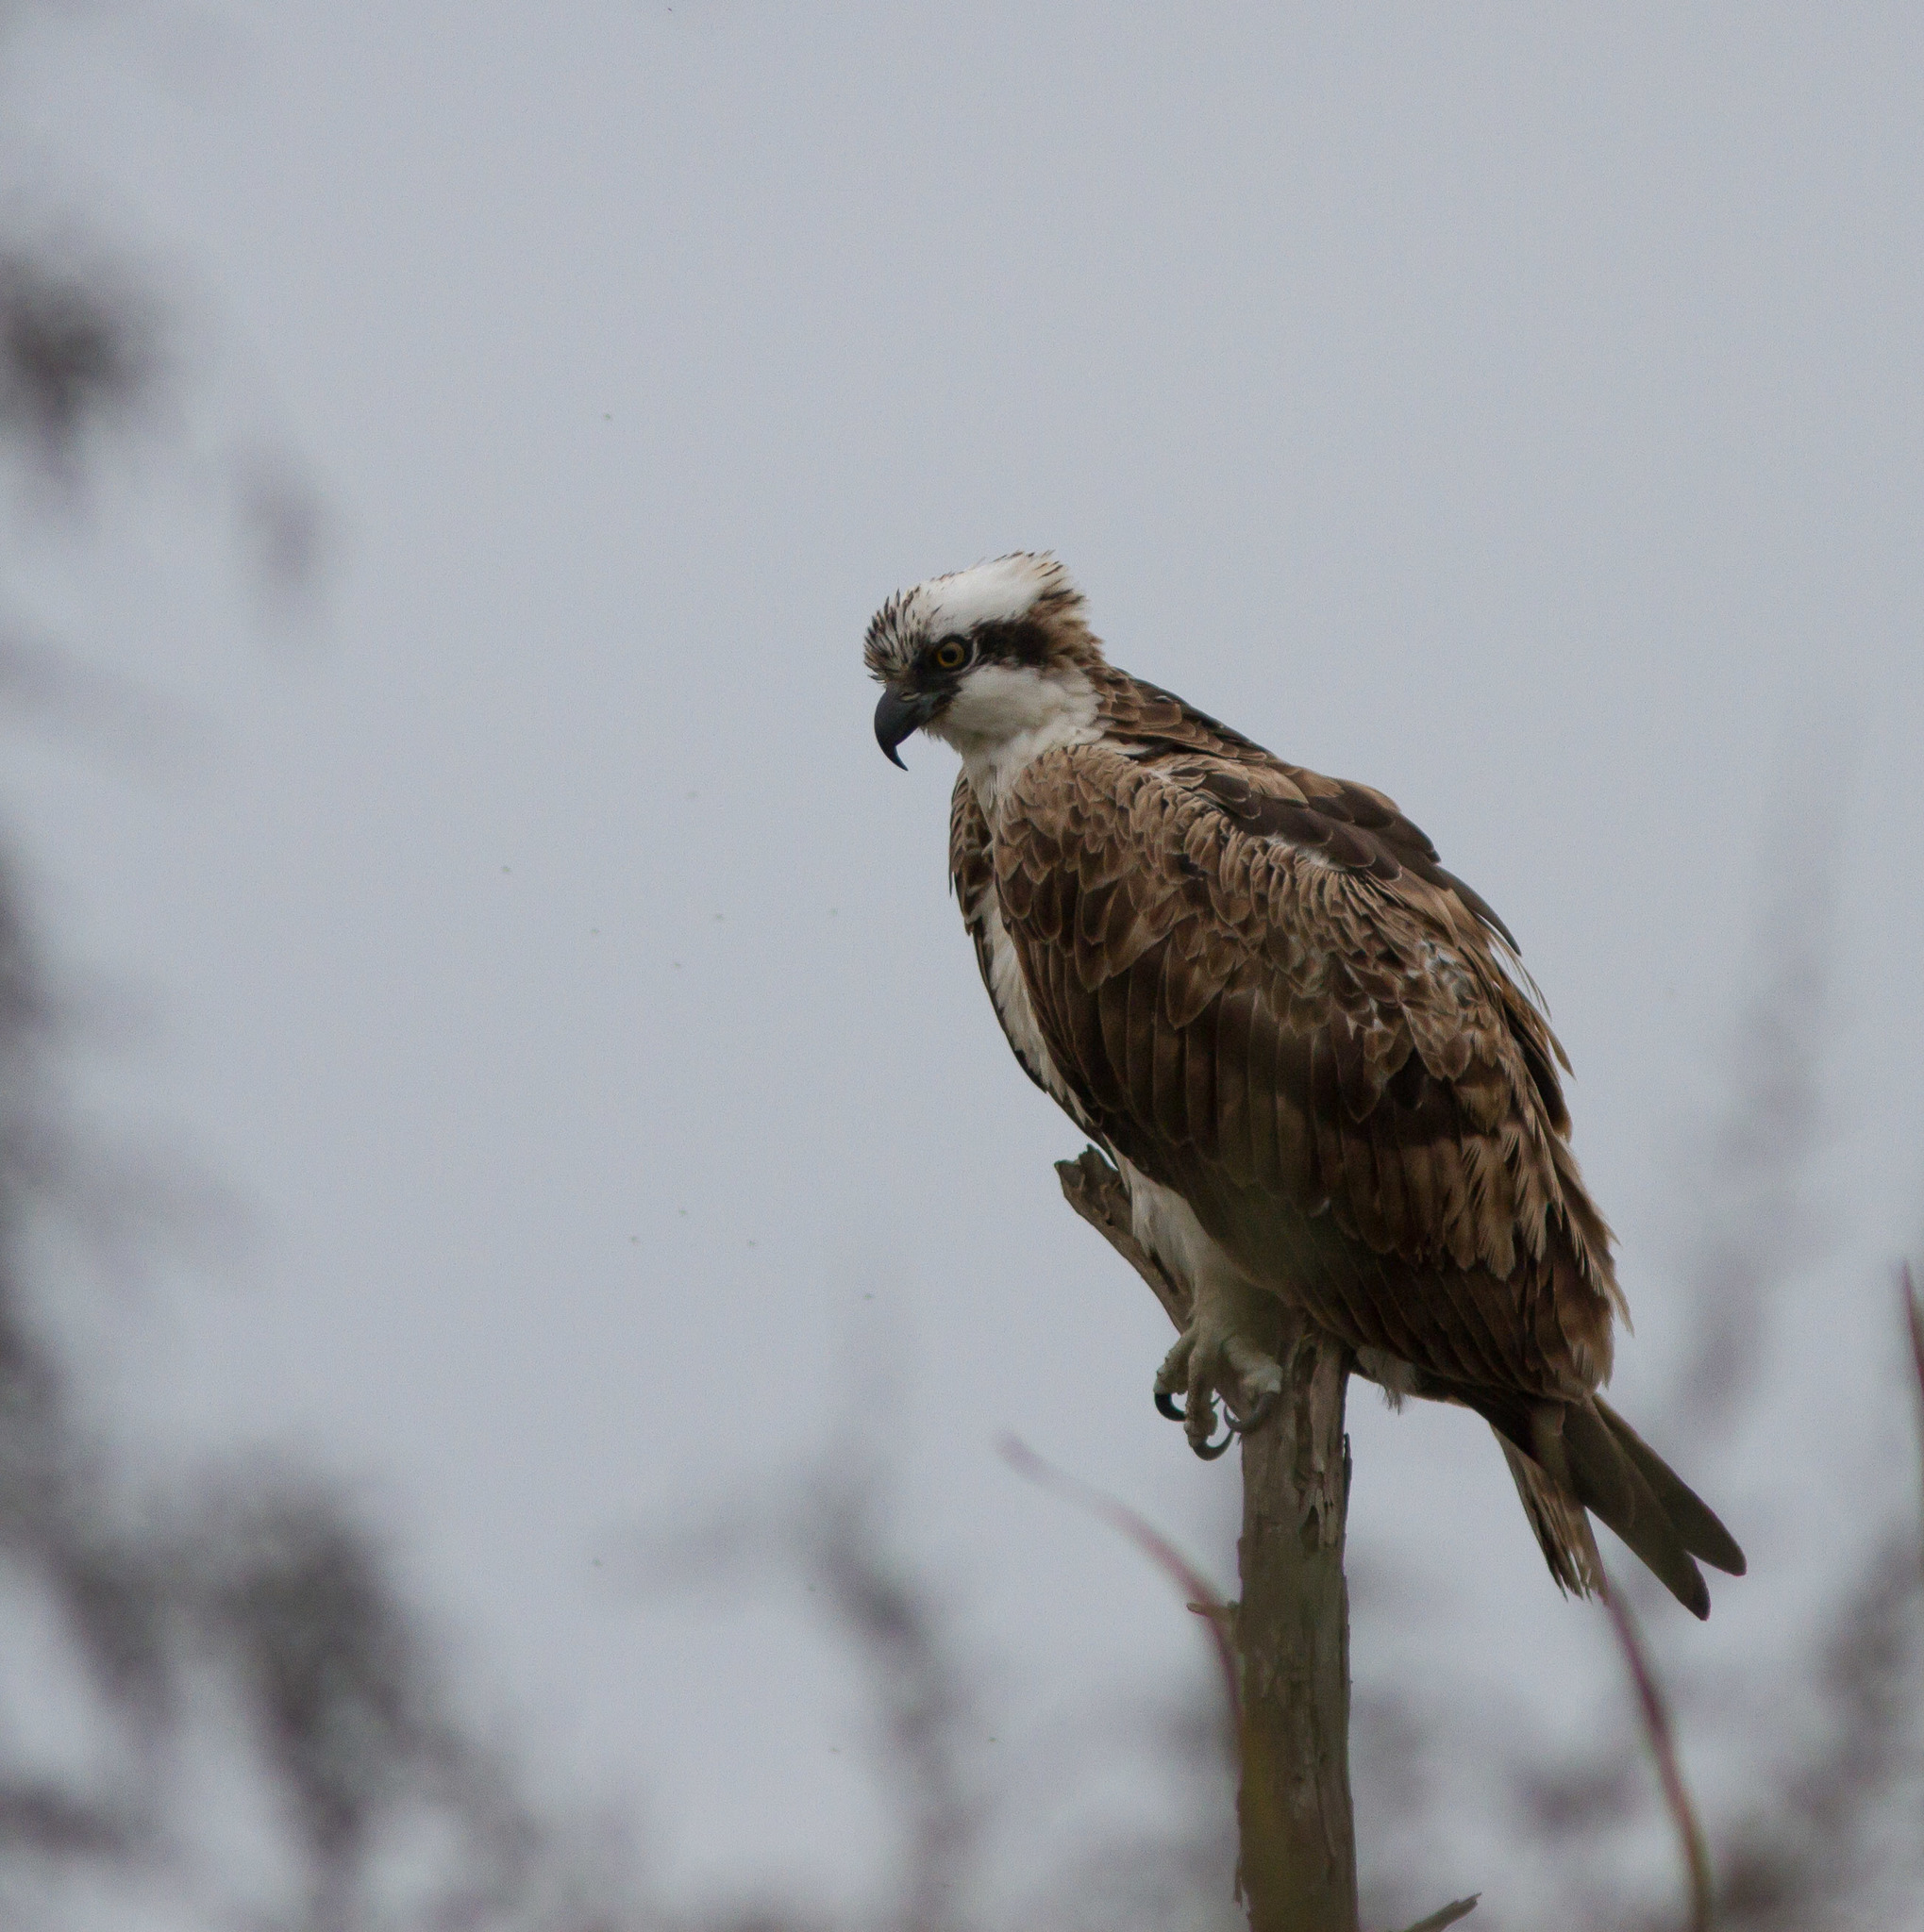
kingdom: Animalia
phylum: Chordata
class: Aves
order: Accipitriformes
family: Pandionidae
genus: Pandion
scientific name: Pandion haliaetus
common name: Osprey
